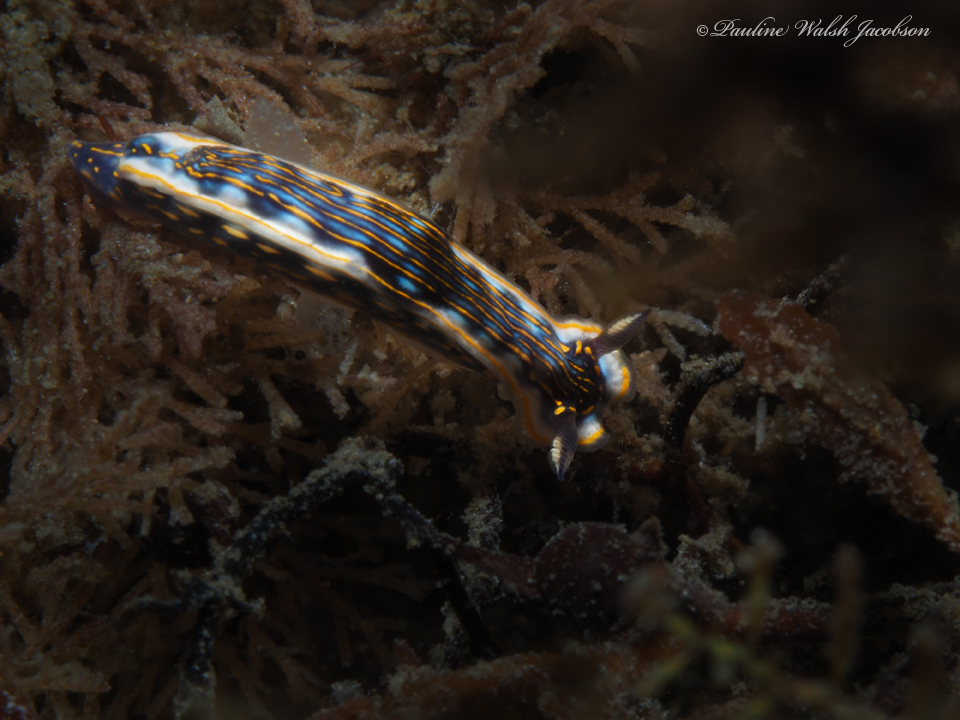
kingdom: Animalia
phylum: Mollusca
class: Gastropoda
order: Nudibranchia
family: Chromodorididae
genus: Felimare
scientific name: Felimare ruthae
